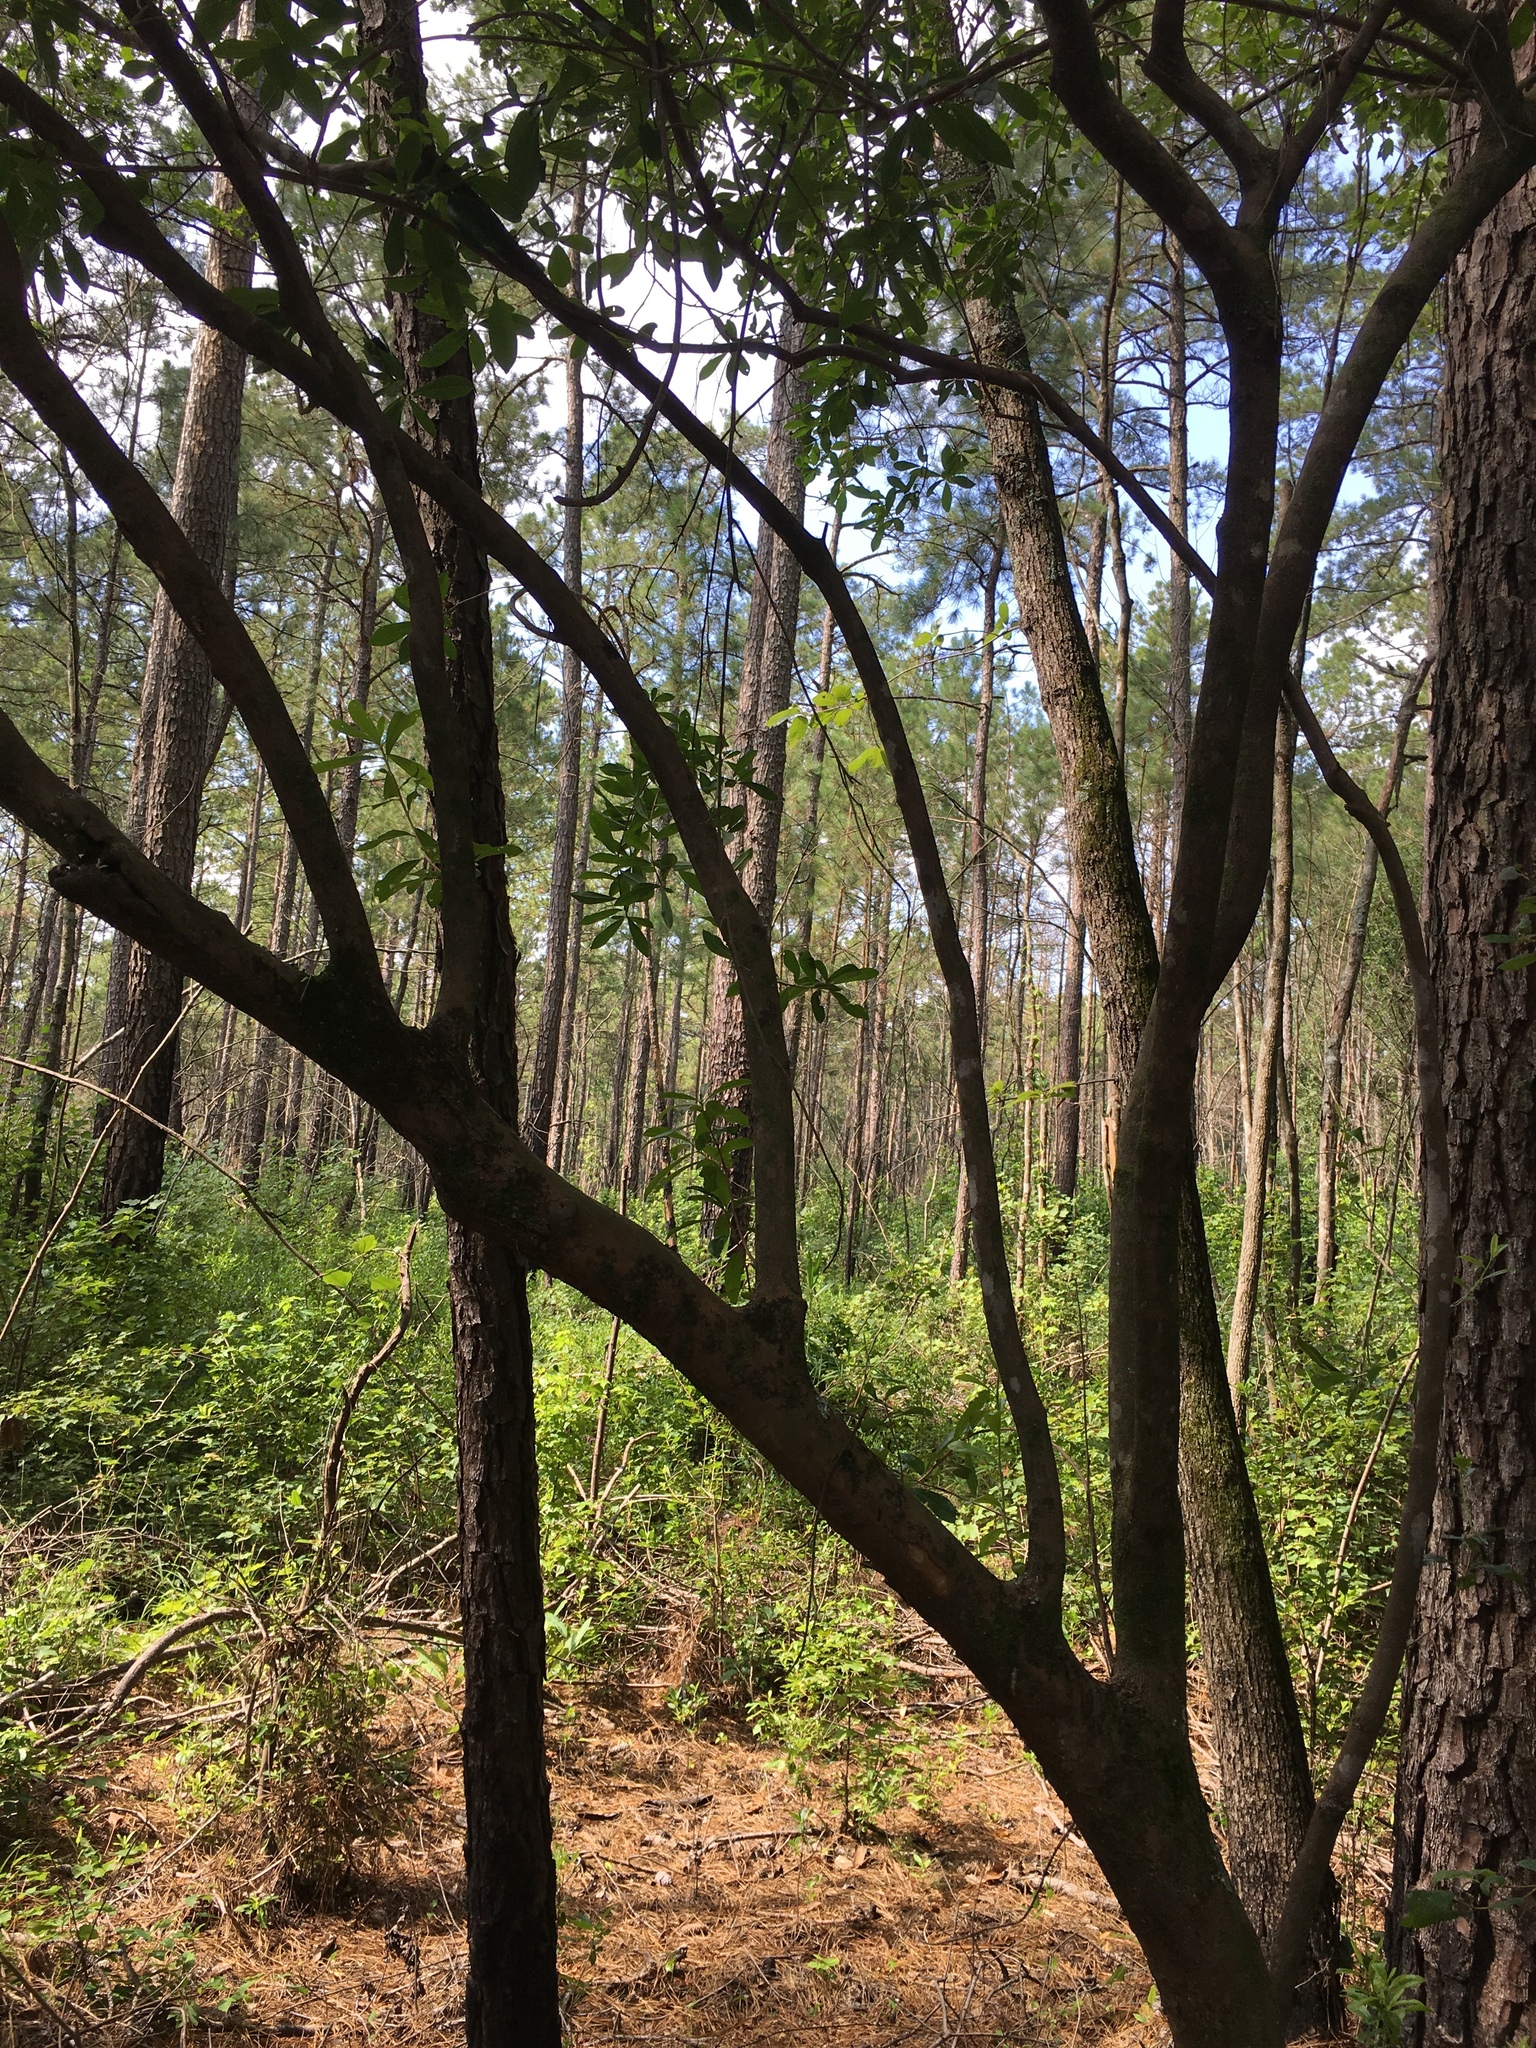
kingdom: Plantae
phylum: Tracheophyta
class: Magnoliopsida
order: Ericales
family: Cyrillaceae
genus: Cyrilla
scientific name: Cyrilla racemiflora
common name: Black titi
